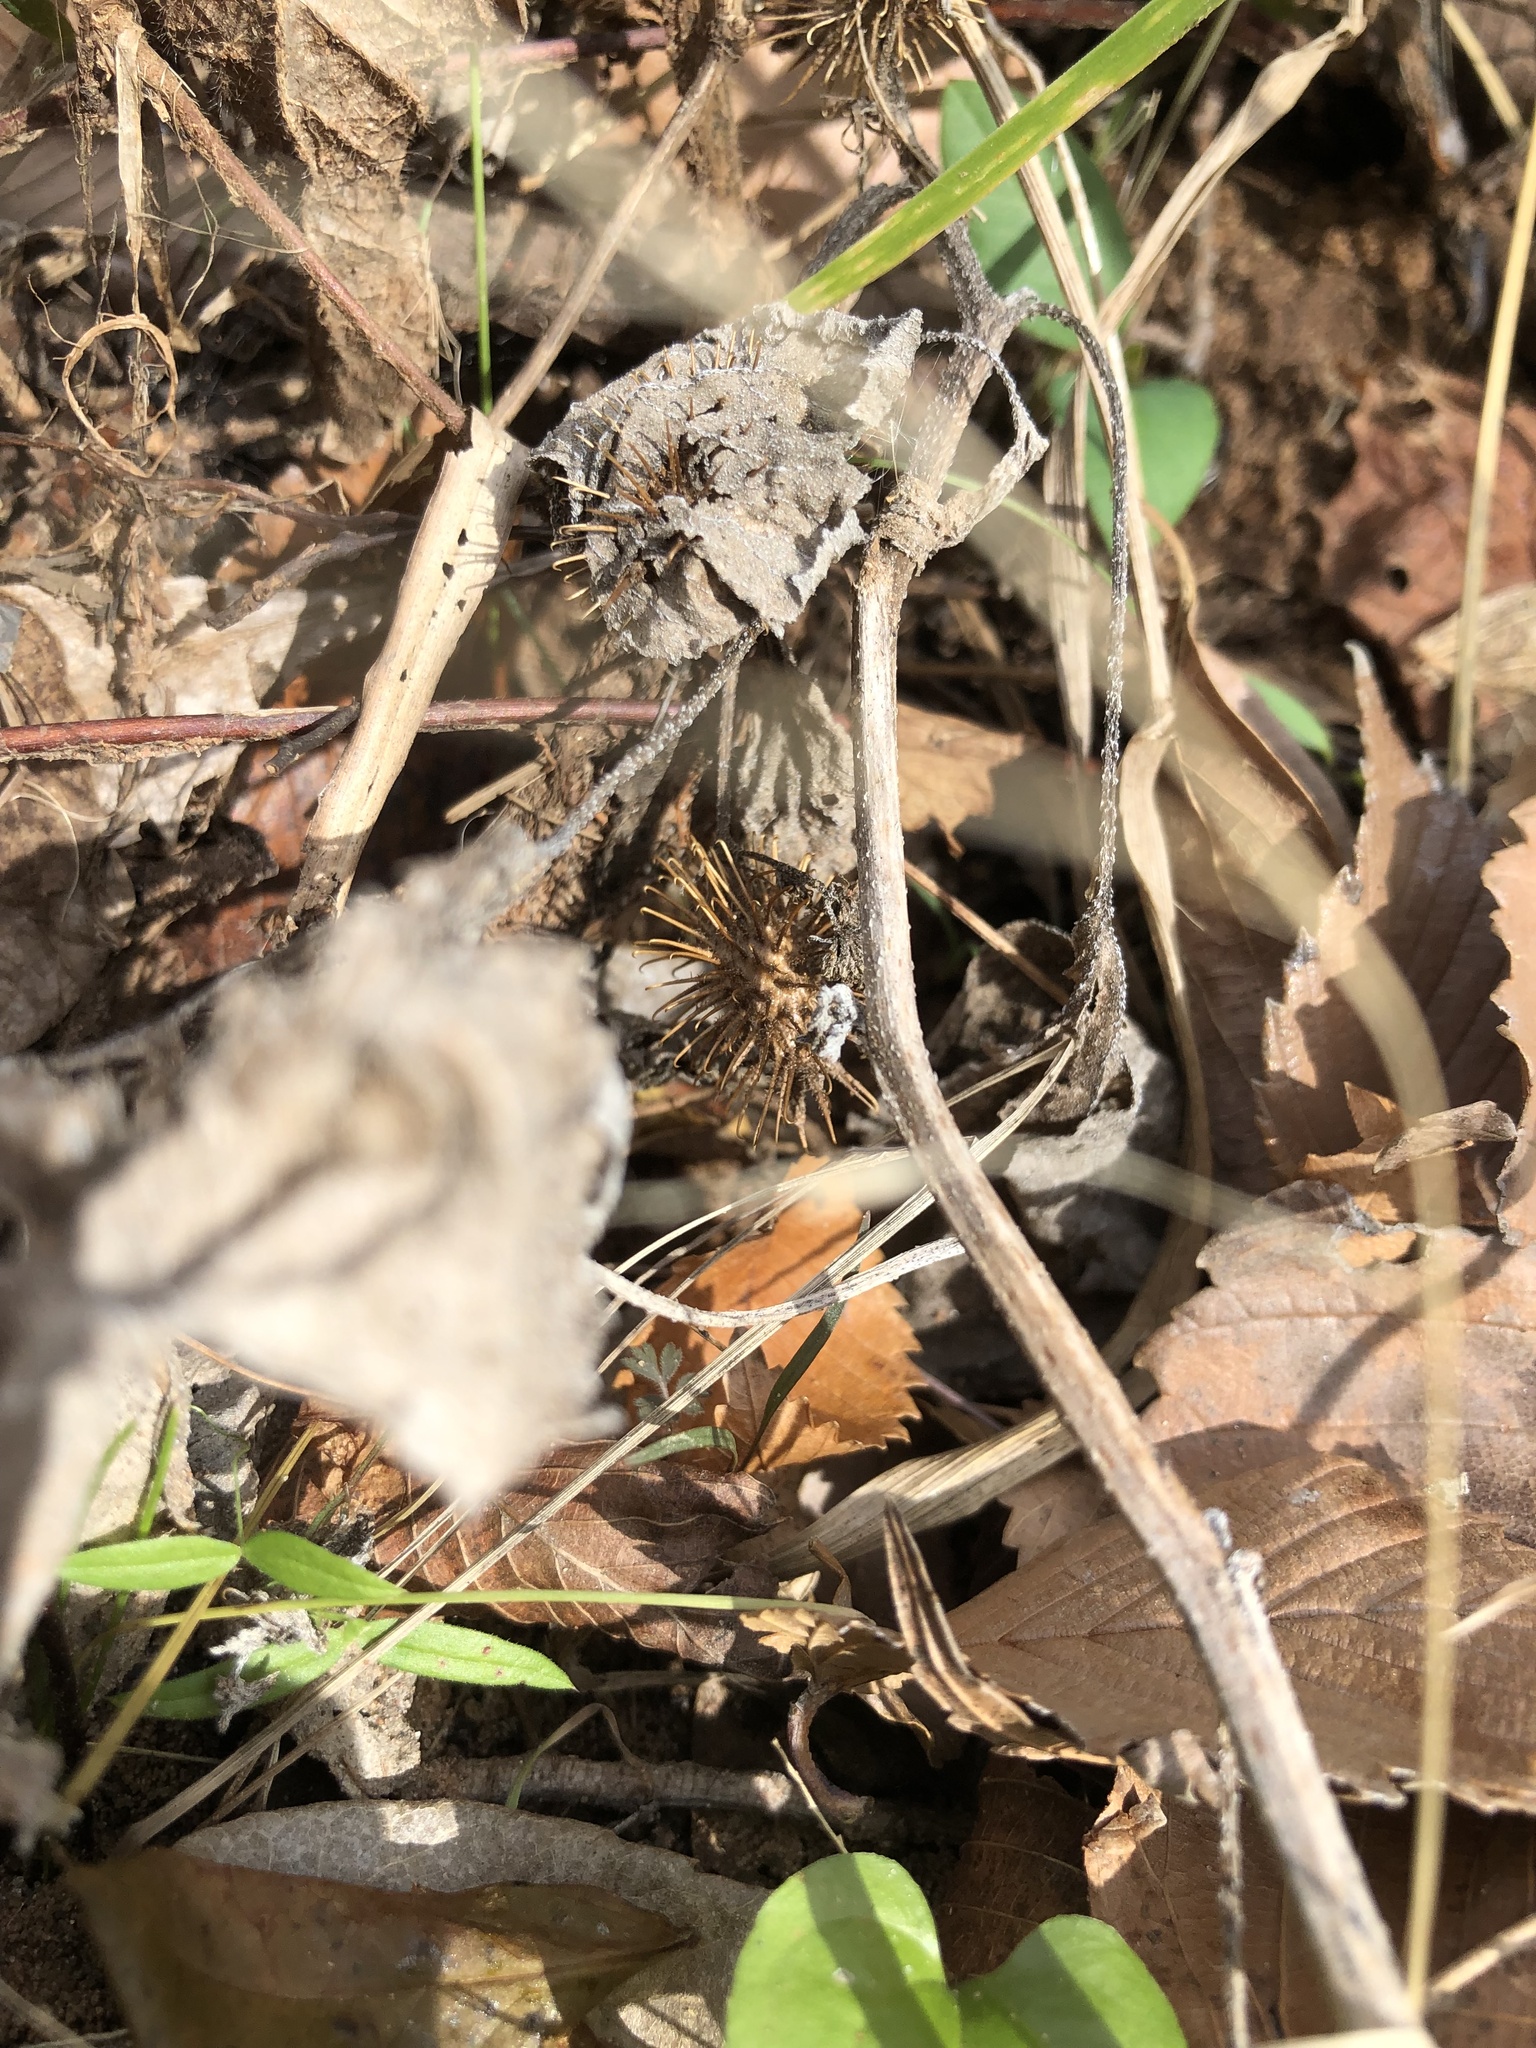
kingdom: Plantae
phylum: Tracheophyta
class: Magnoliopsida
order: Asterales
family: Asteraceae
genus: Xanthium
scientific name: Xanthium strumarium
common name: Rough cocklebur
